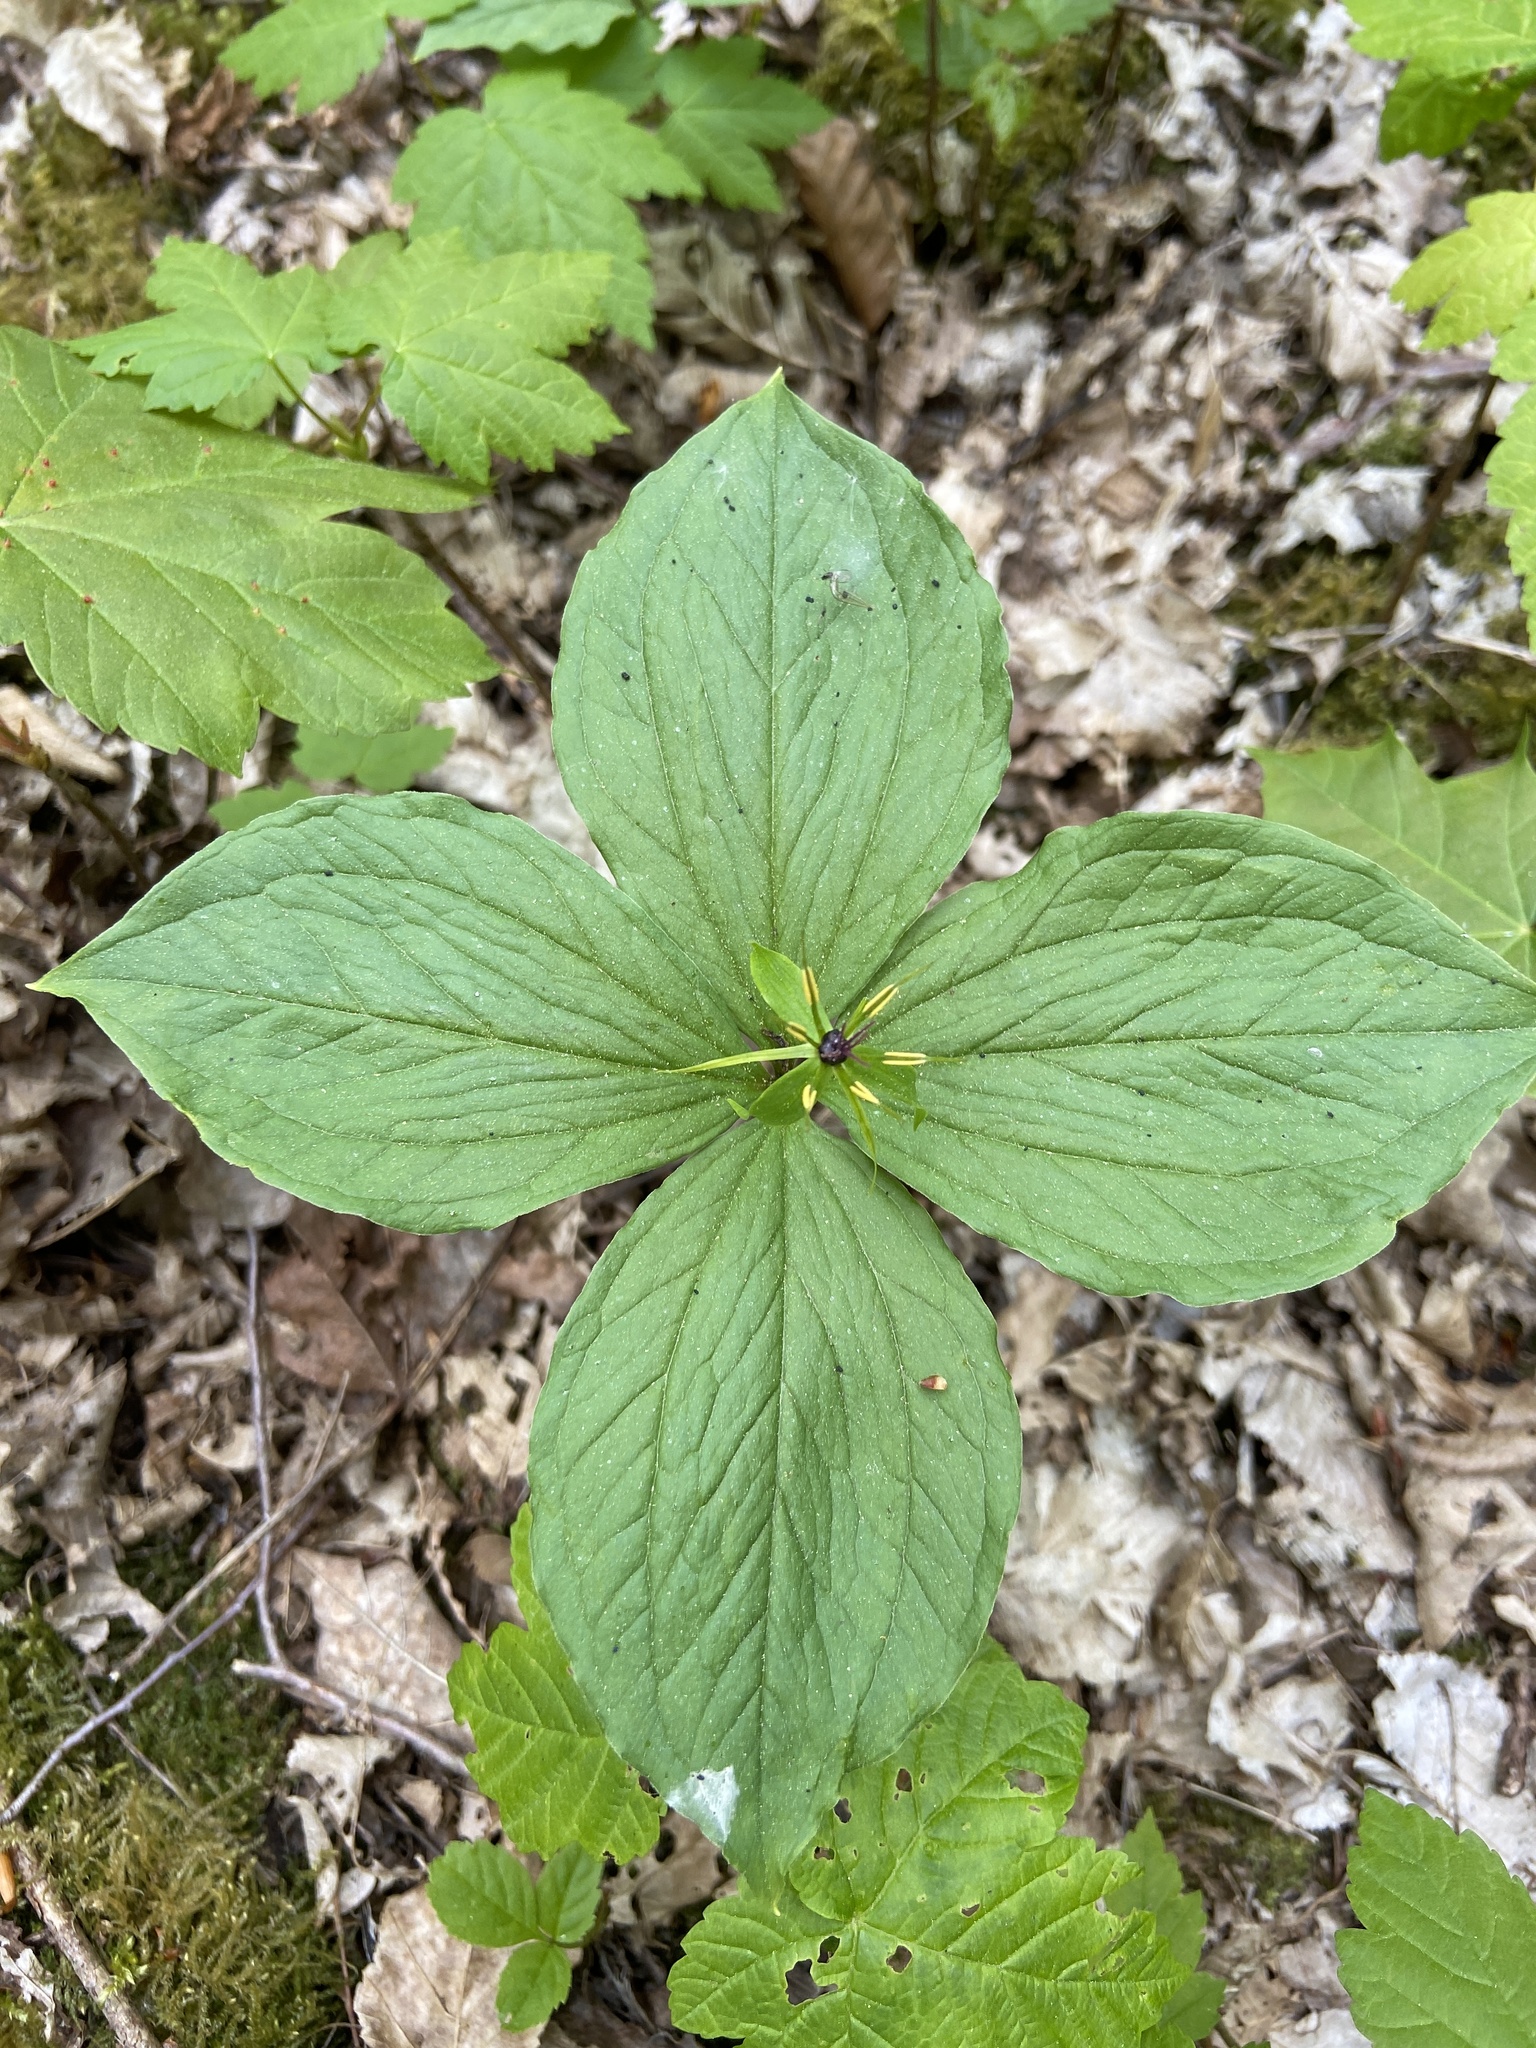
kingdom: Plantae
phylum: Tracheophyta
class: Liliopsida
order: Liliales
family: Melanthiaceae
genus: Paris
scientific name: Paris quadrifolia
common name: Herb-paris
